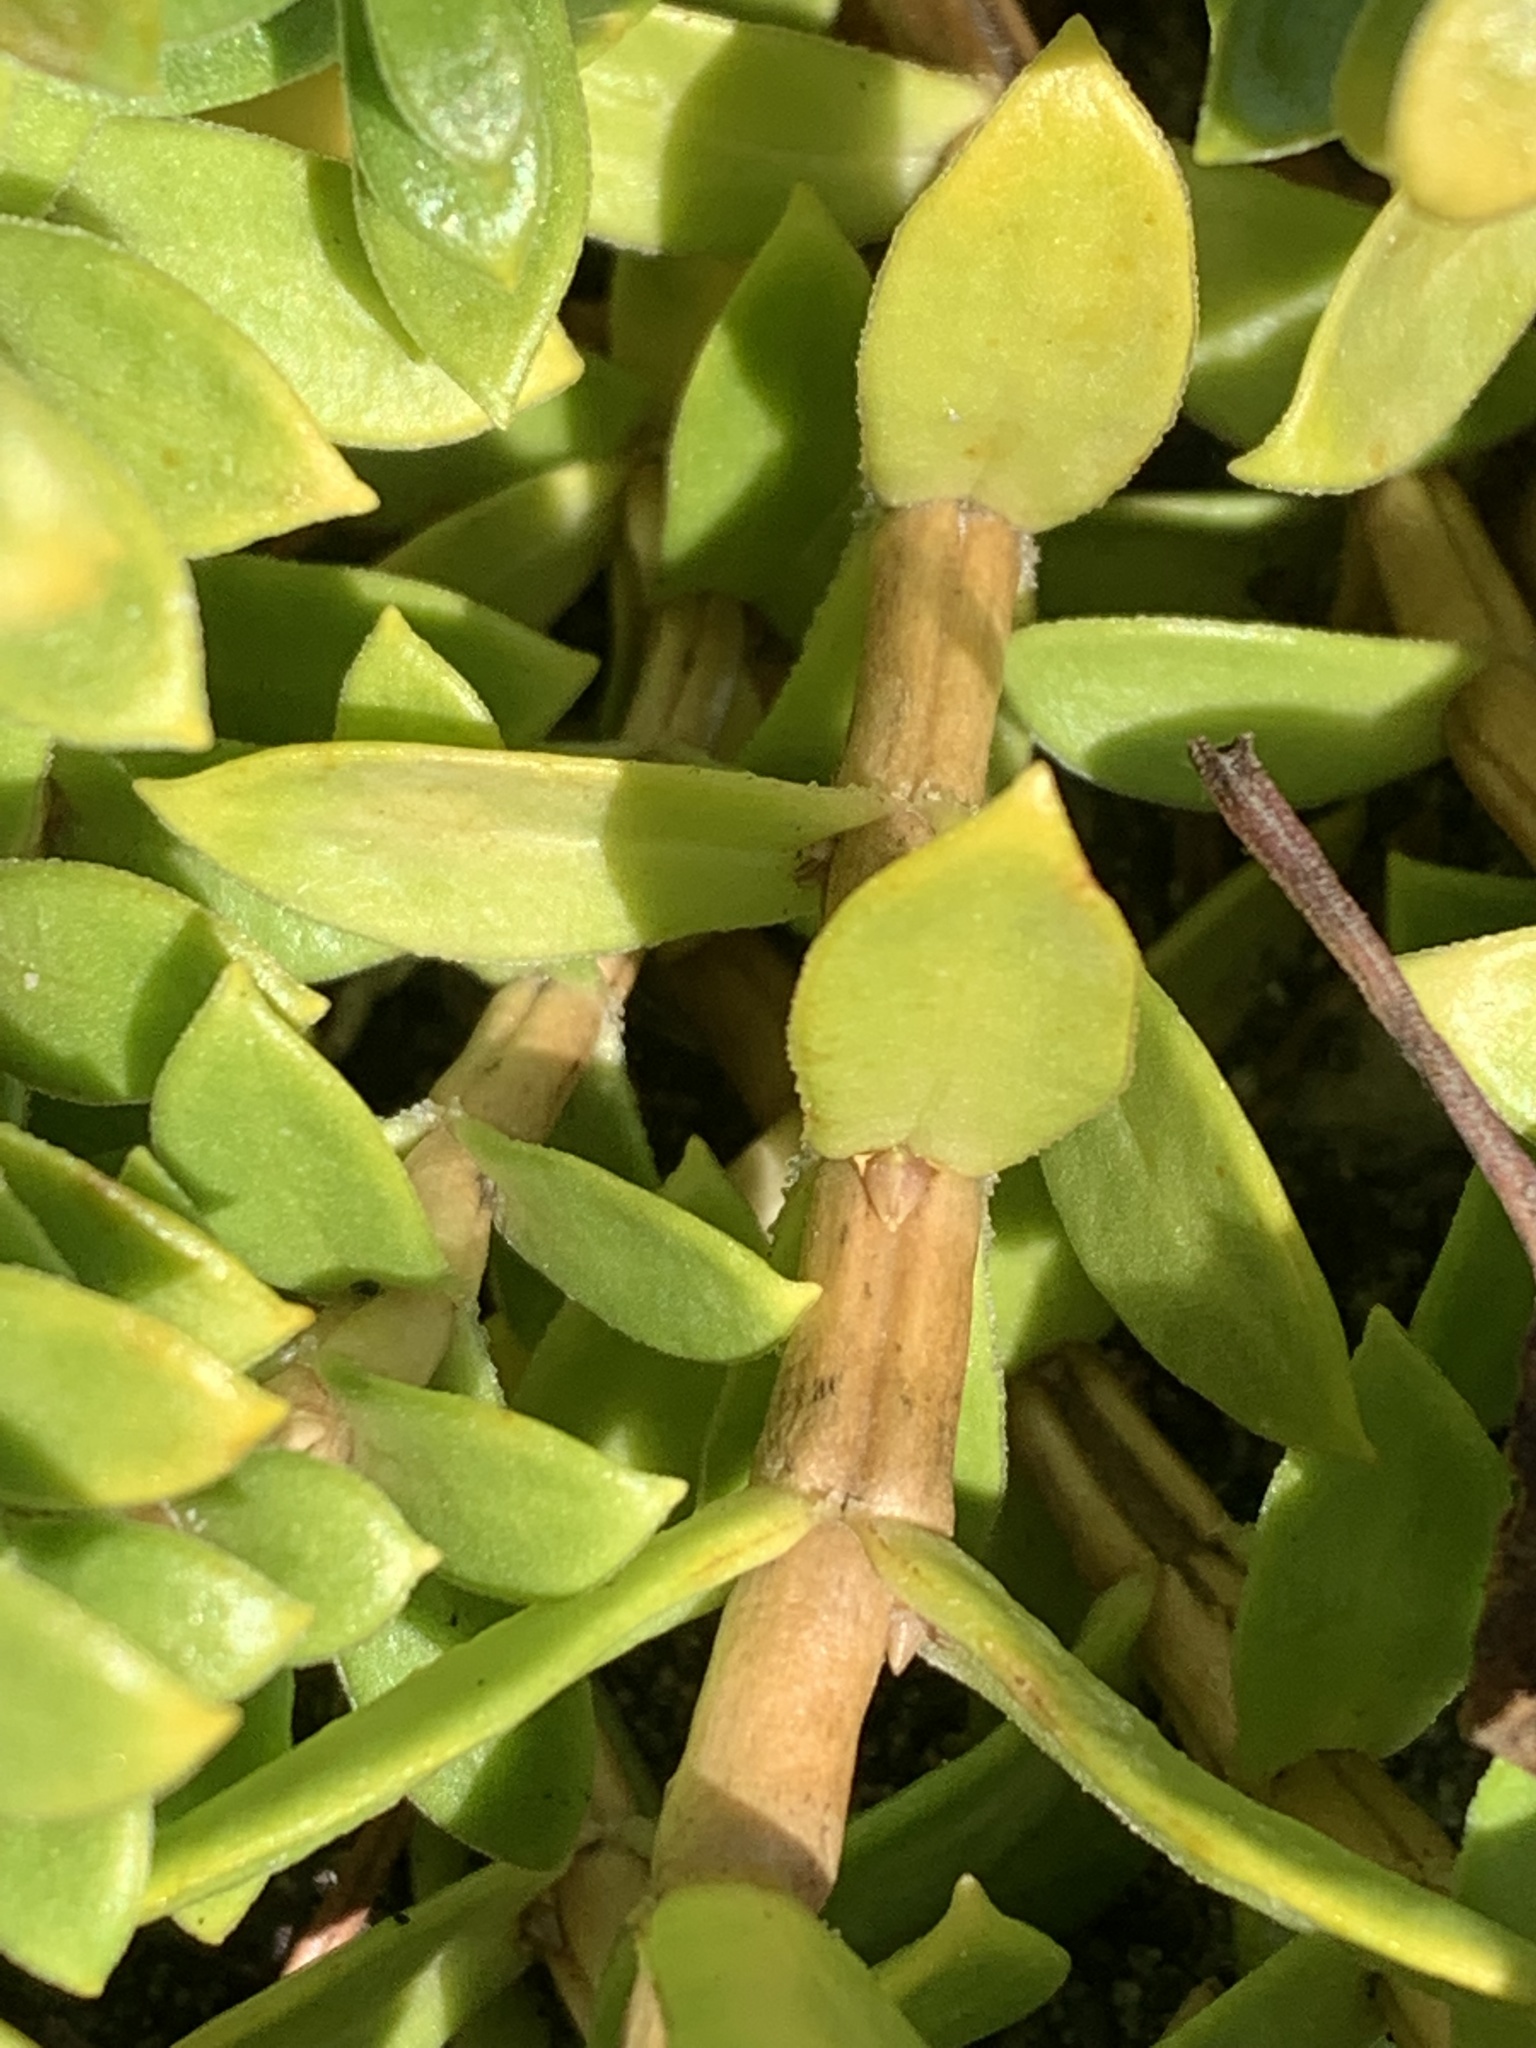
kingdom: Plantae
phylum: Tracheophyta
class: Magnoliopsida
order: Caryophyllales
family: Caryophyllaceae
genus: Honckenya
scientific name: Honckenya peploides
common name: Sea sandwort
